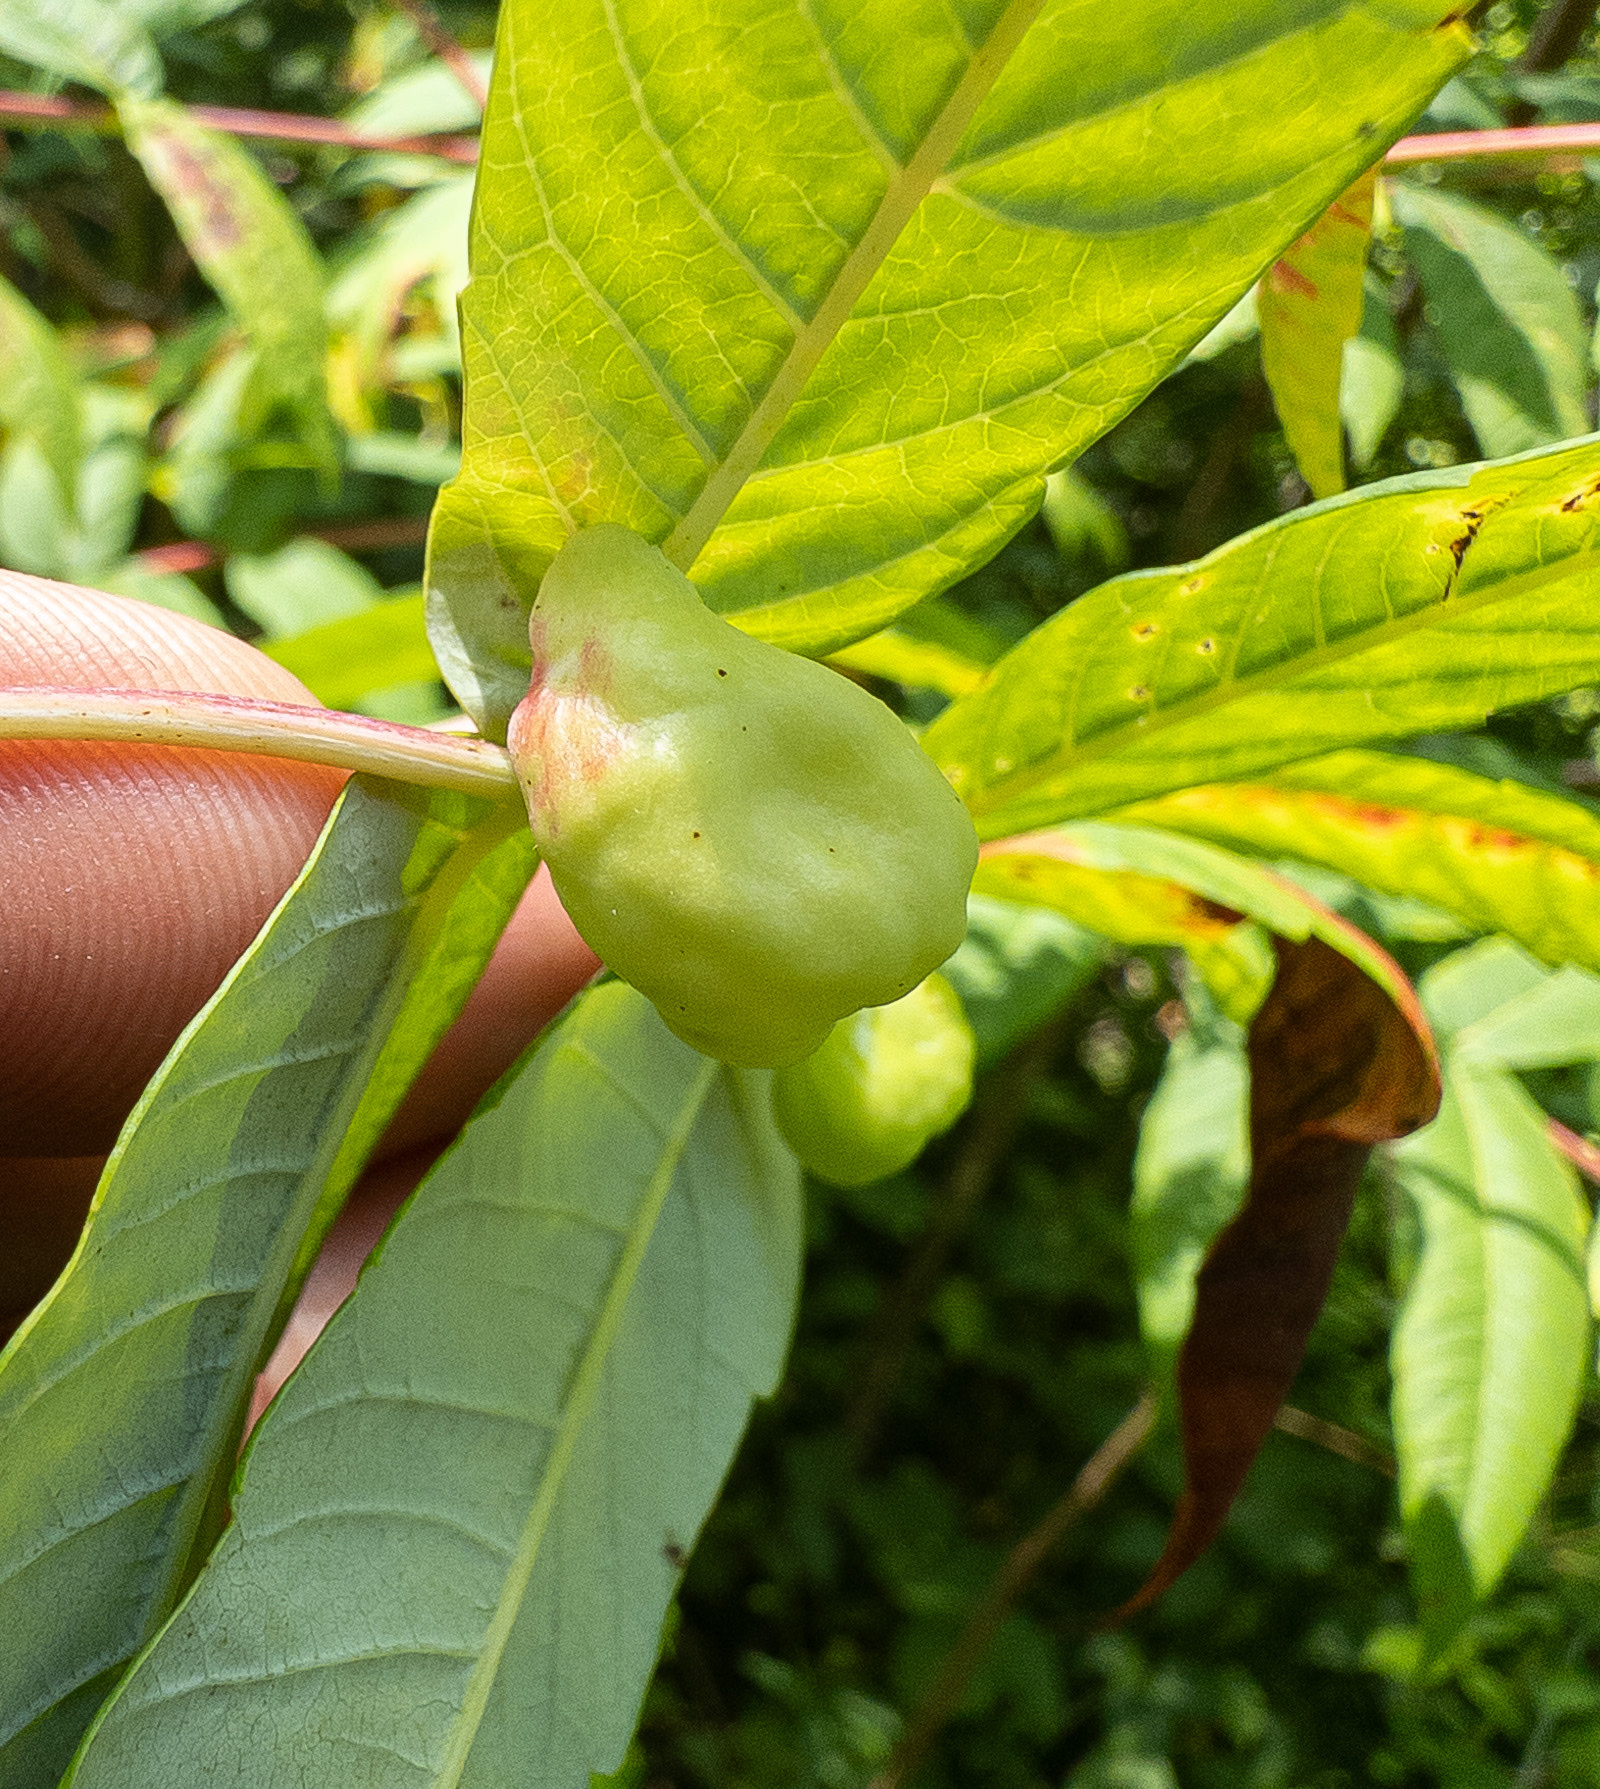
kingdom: Animalia
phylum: Arthropoda
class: Insecta
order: Hemiptera
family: Aphididae
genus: Melaphis
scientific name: Melaphis rhois
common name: Sumac gall aphid
